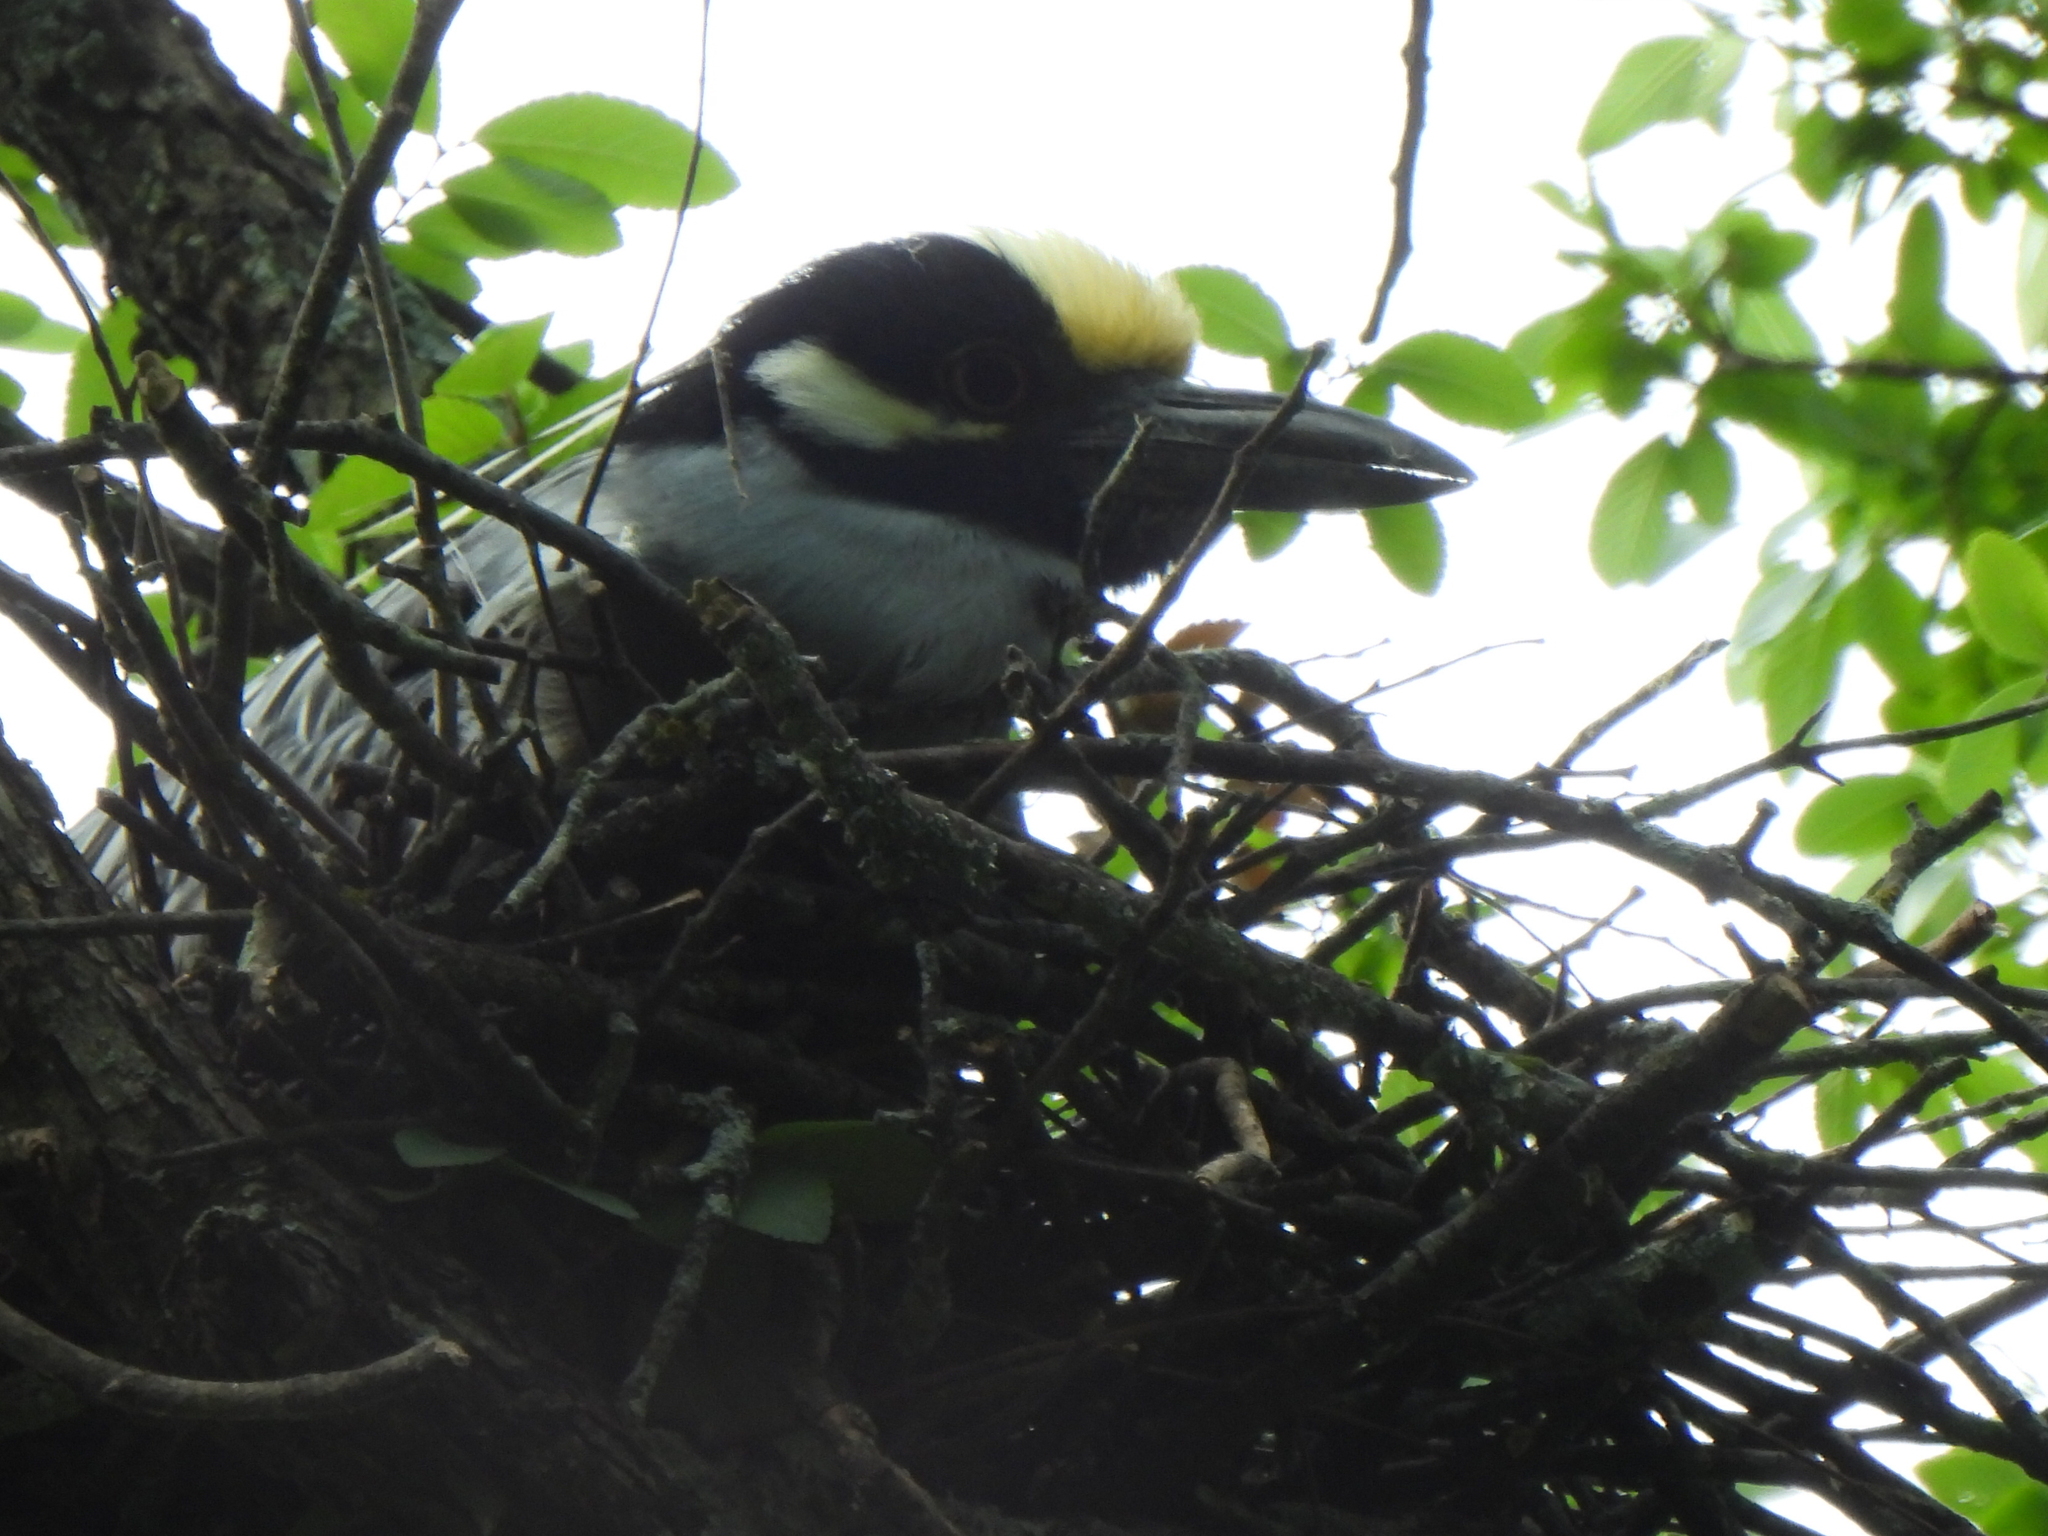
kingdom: Animalia
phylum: Chordata
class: Aves
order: Pelecaniformes
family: Ardeidae
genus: Nyctanassa
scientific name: Nyctanassa violacea
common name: Yellow-crowned night heron
